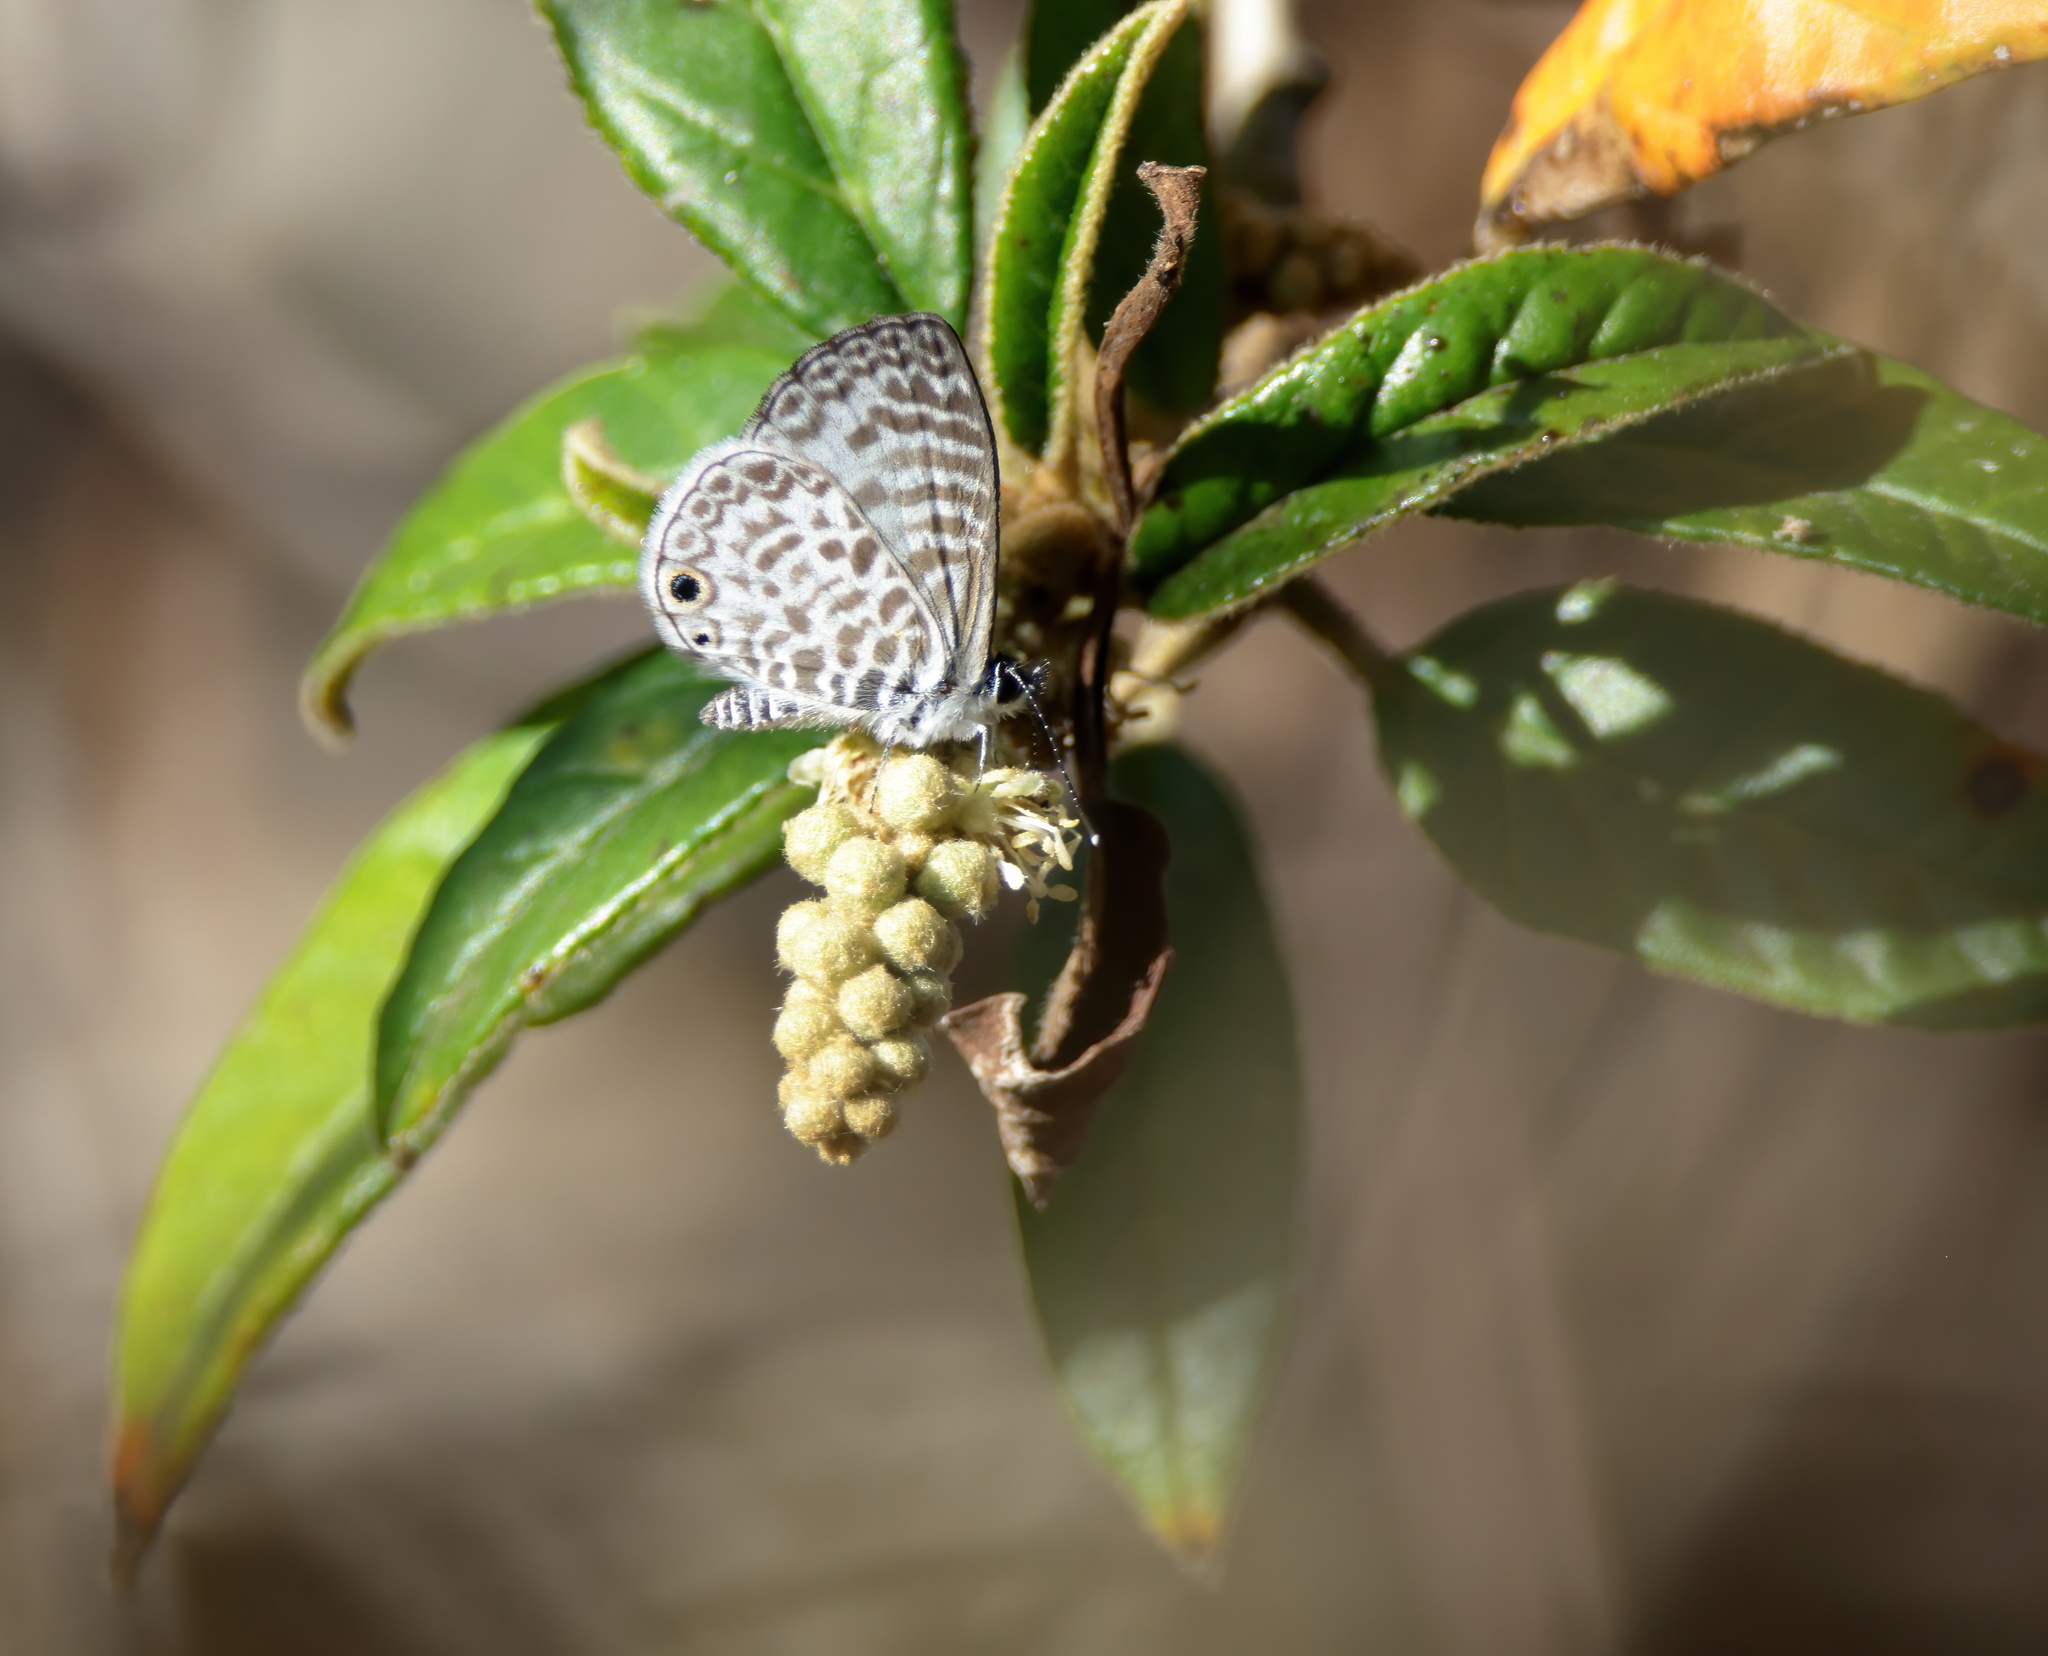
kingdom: Animalia
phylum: Arthropoda
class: Insecta
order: Lepidoptera
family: Lycaenidae
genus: Leptotes
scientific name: Leptotes cassius
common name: Cassius blue
